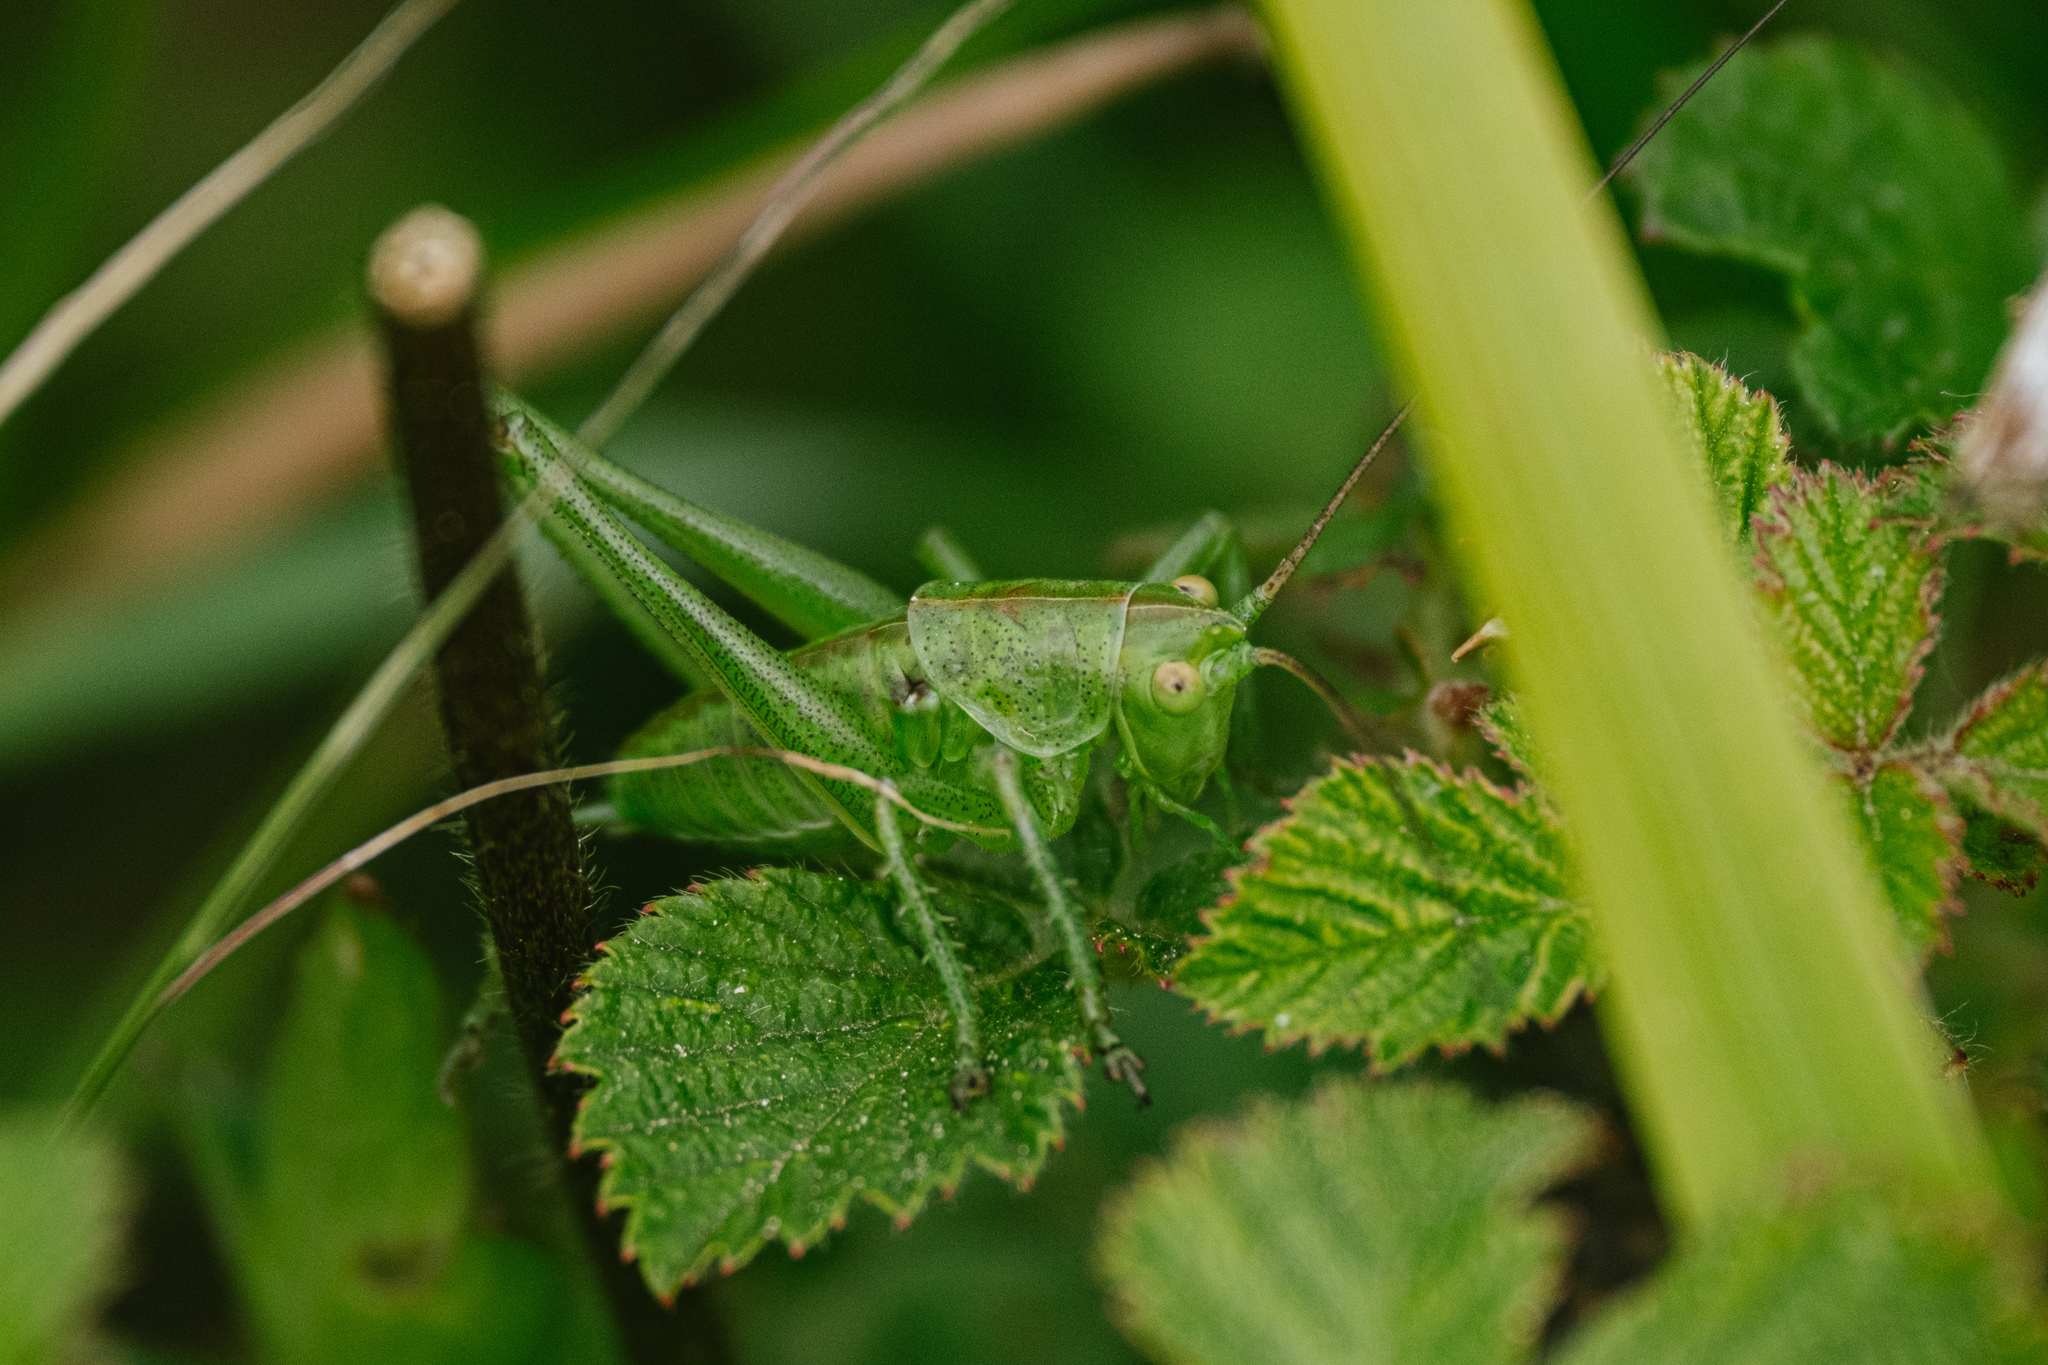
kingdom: Animalia
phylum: Arthropoda
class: Insecta
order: Orthoptera
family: Tettigoniidae
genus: Tettigonia
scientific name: Tettigonia viridissima
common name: Great green bush-cricket
